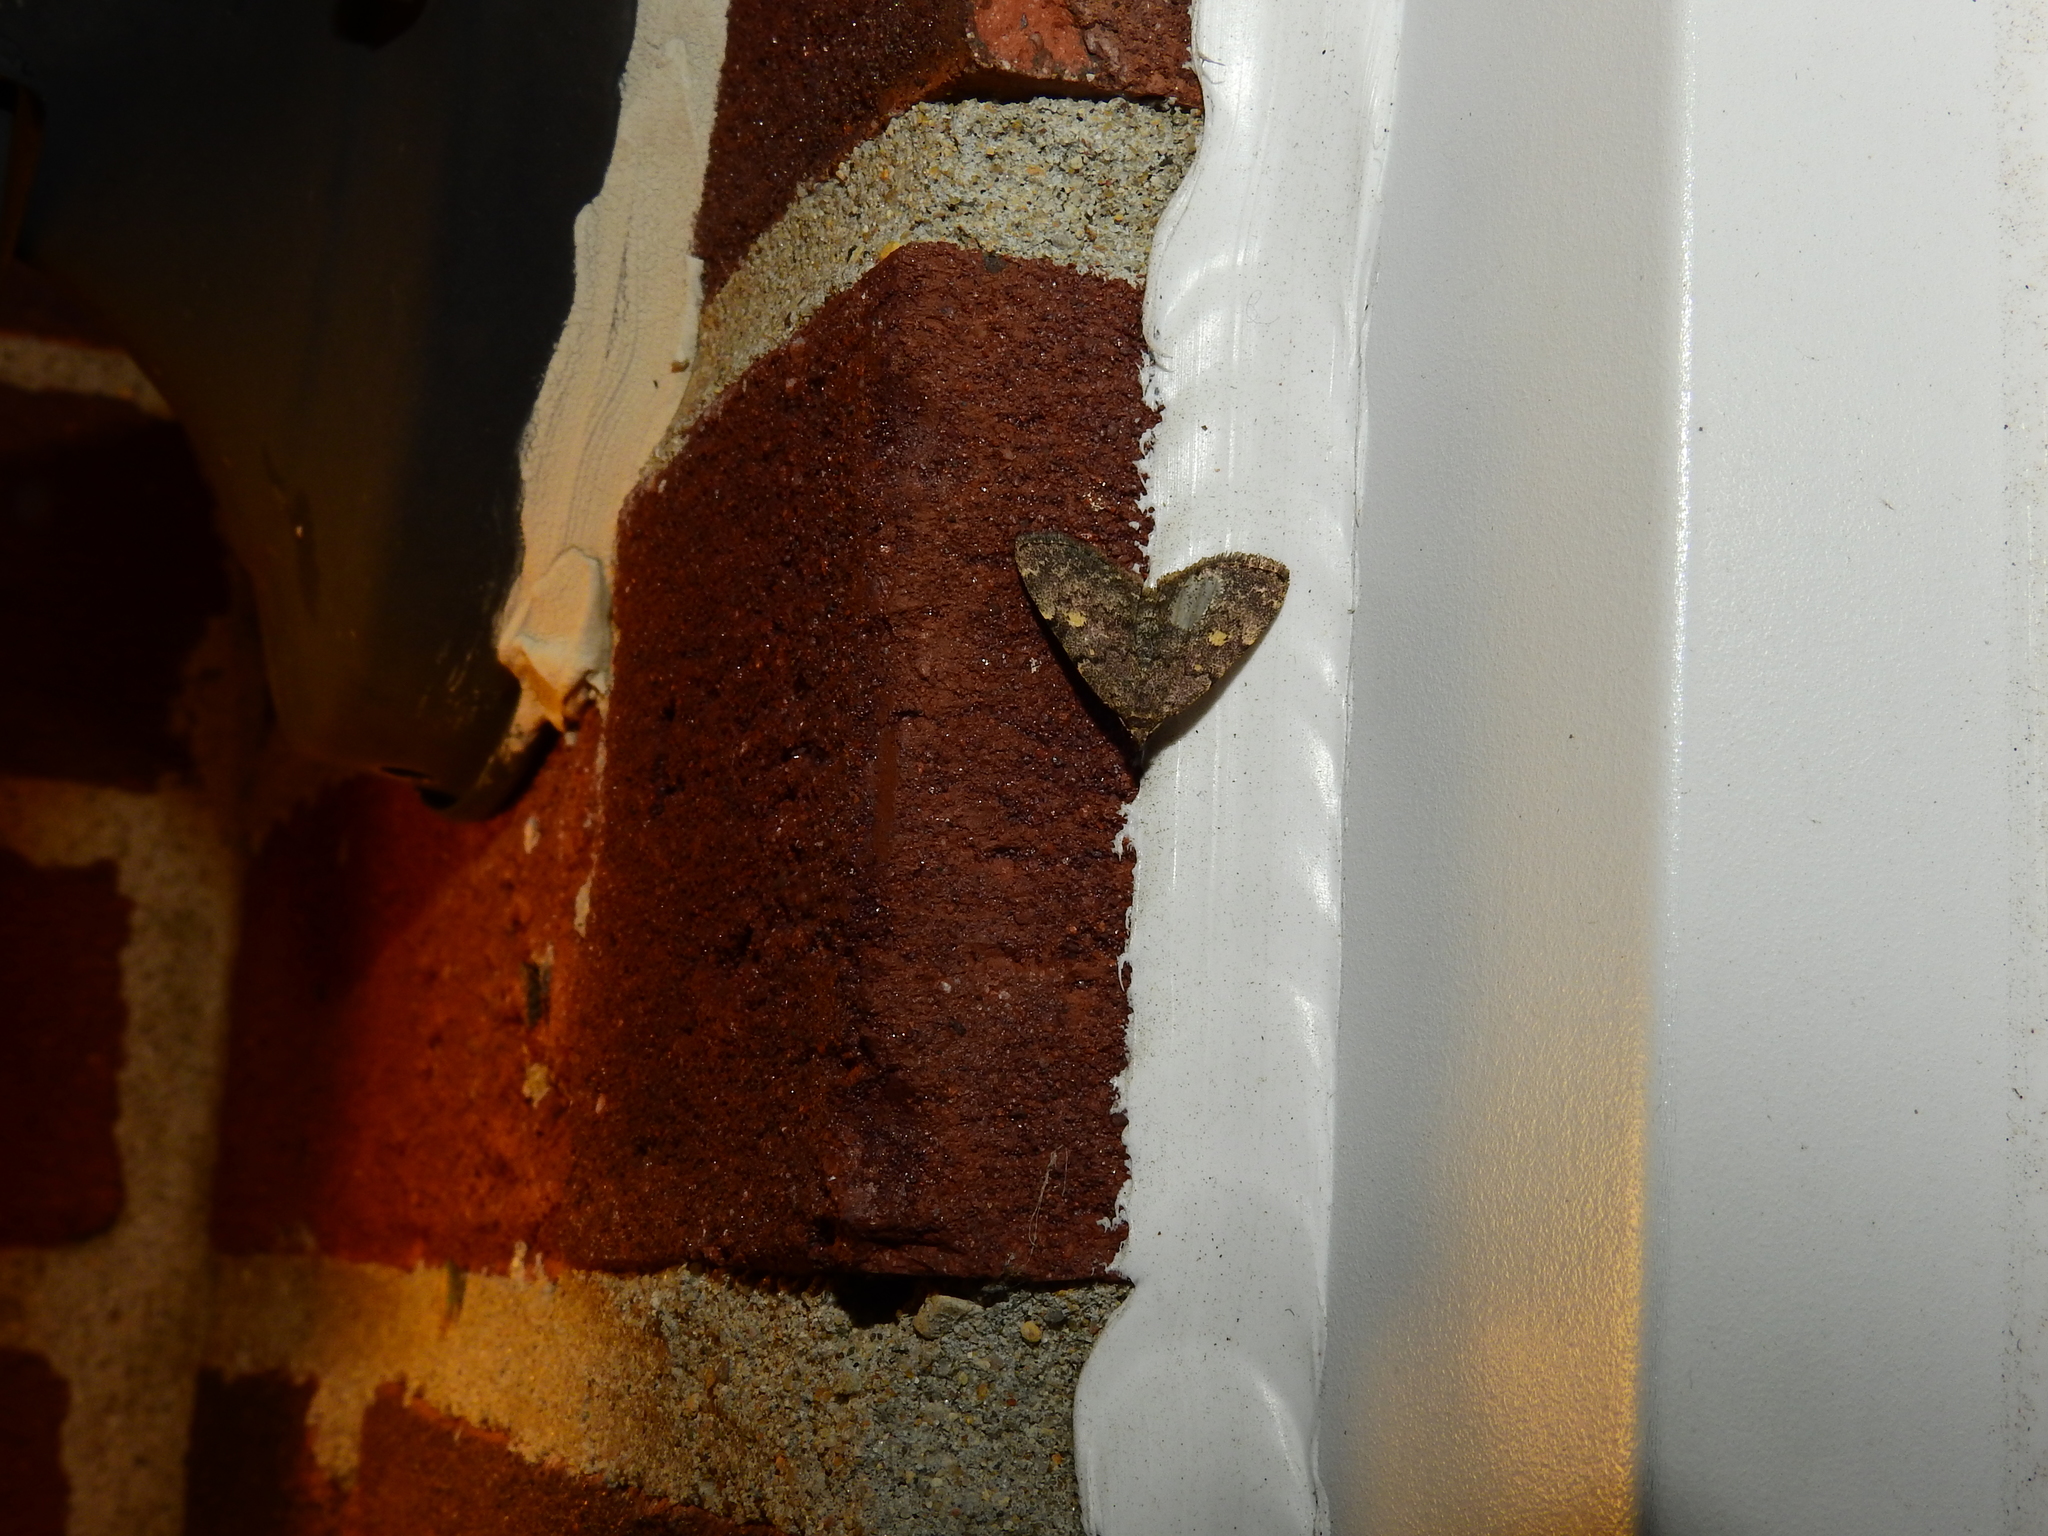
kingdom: Animalia
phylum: Arthropoda
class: Insecta
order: Lepidoptera
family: Erebidae
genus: Idia
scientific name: Idia aemula
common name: Common idia moth
